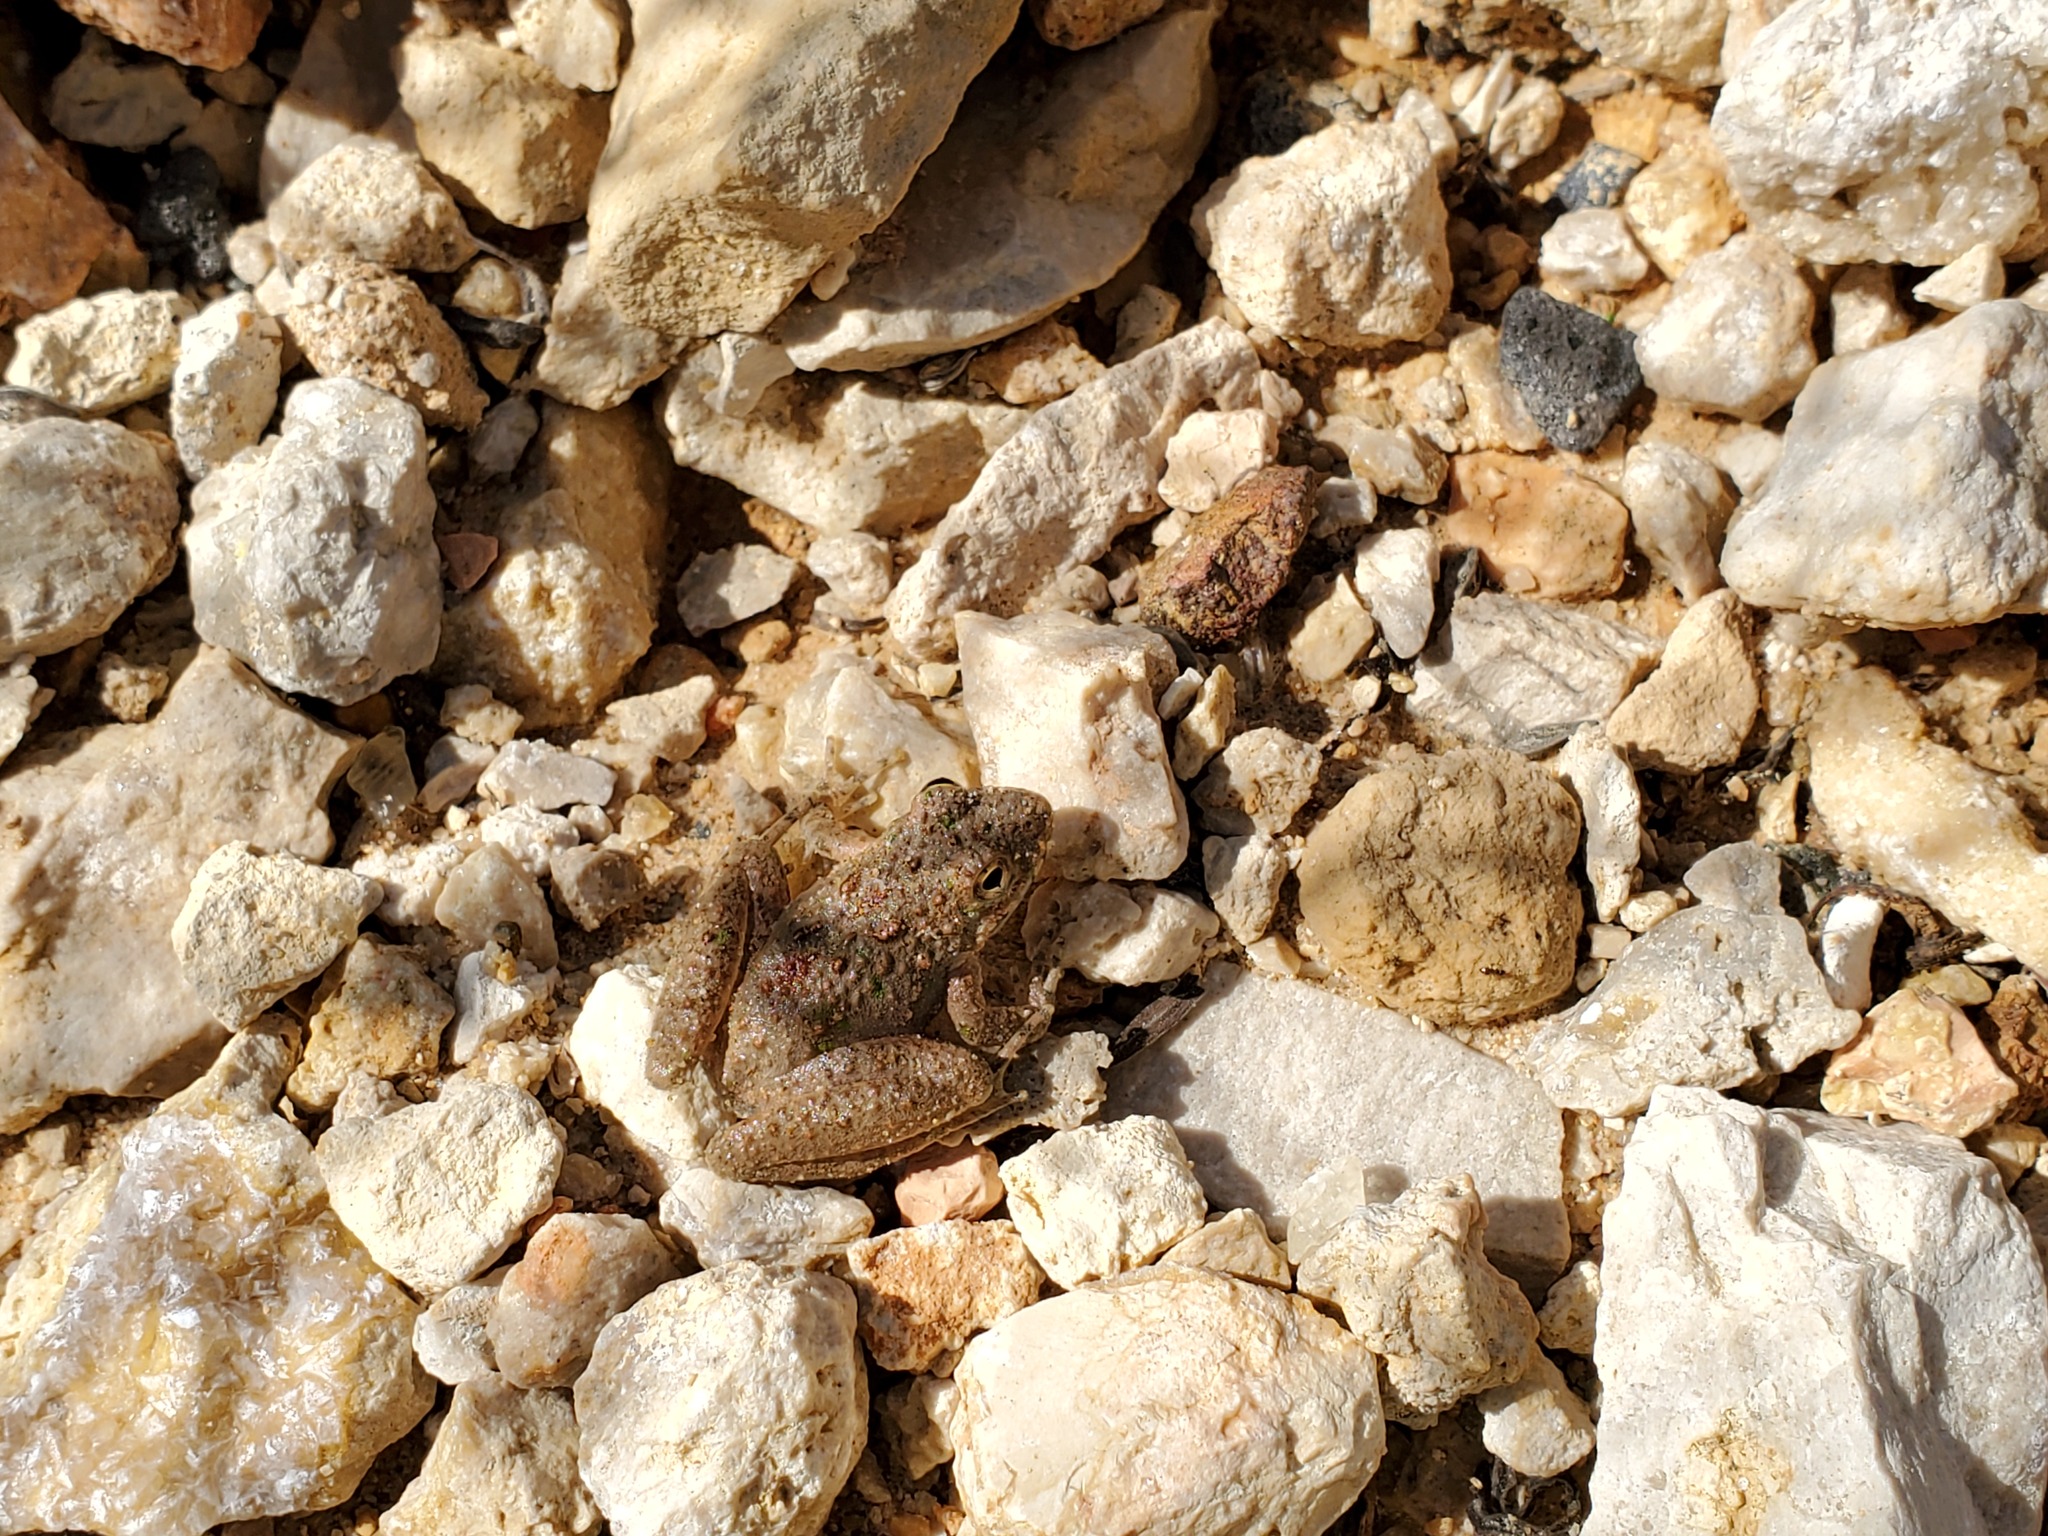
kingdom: Animalia
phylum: Chordata
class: Amphibia
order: Anura
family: Hylidae
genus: Acris
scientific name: Acris blanchardi
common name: Blanchard's cricket frog
